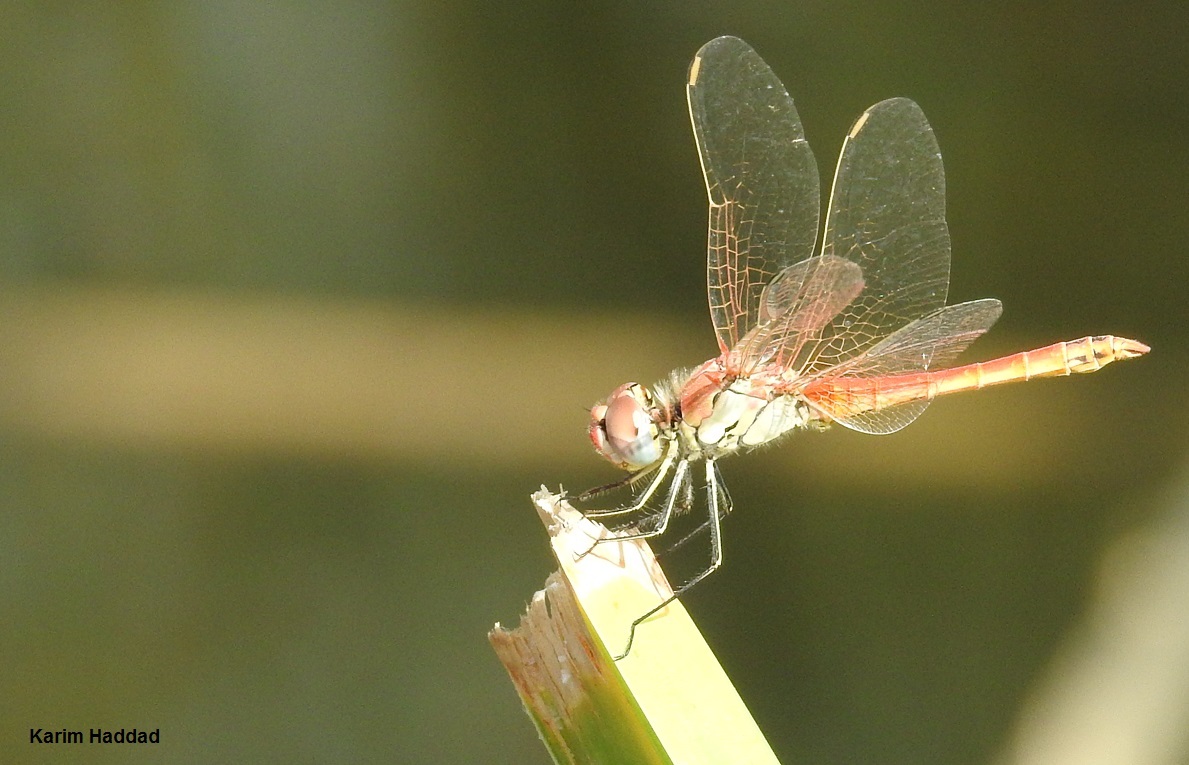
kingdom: Animalia
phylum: Arthropoda
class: Insecta
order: Odonata
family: Libellulidae
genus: Sympetrum
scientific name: Sympetrum fonscolombii
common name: Red-veined darter
